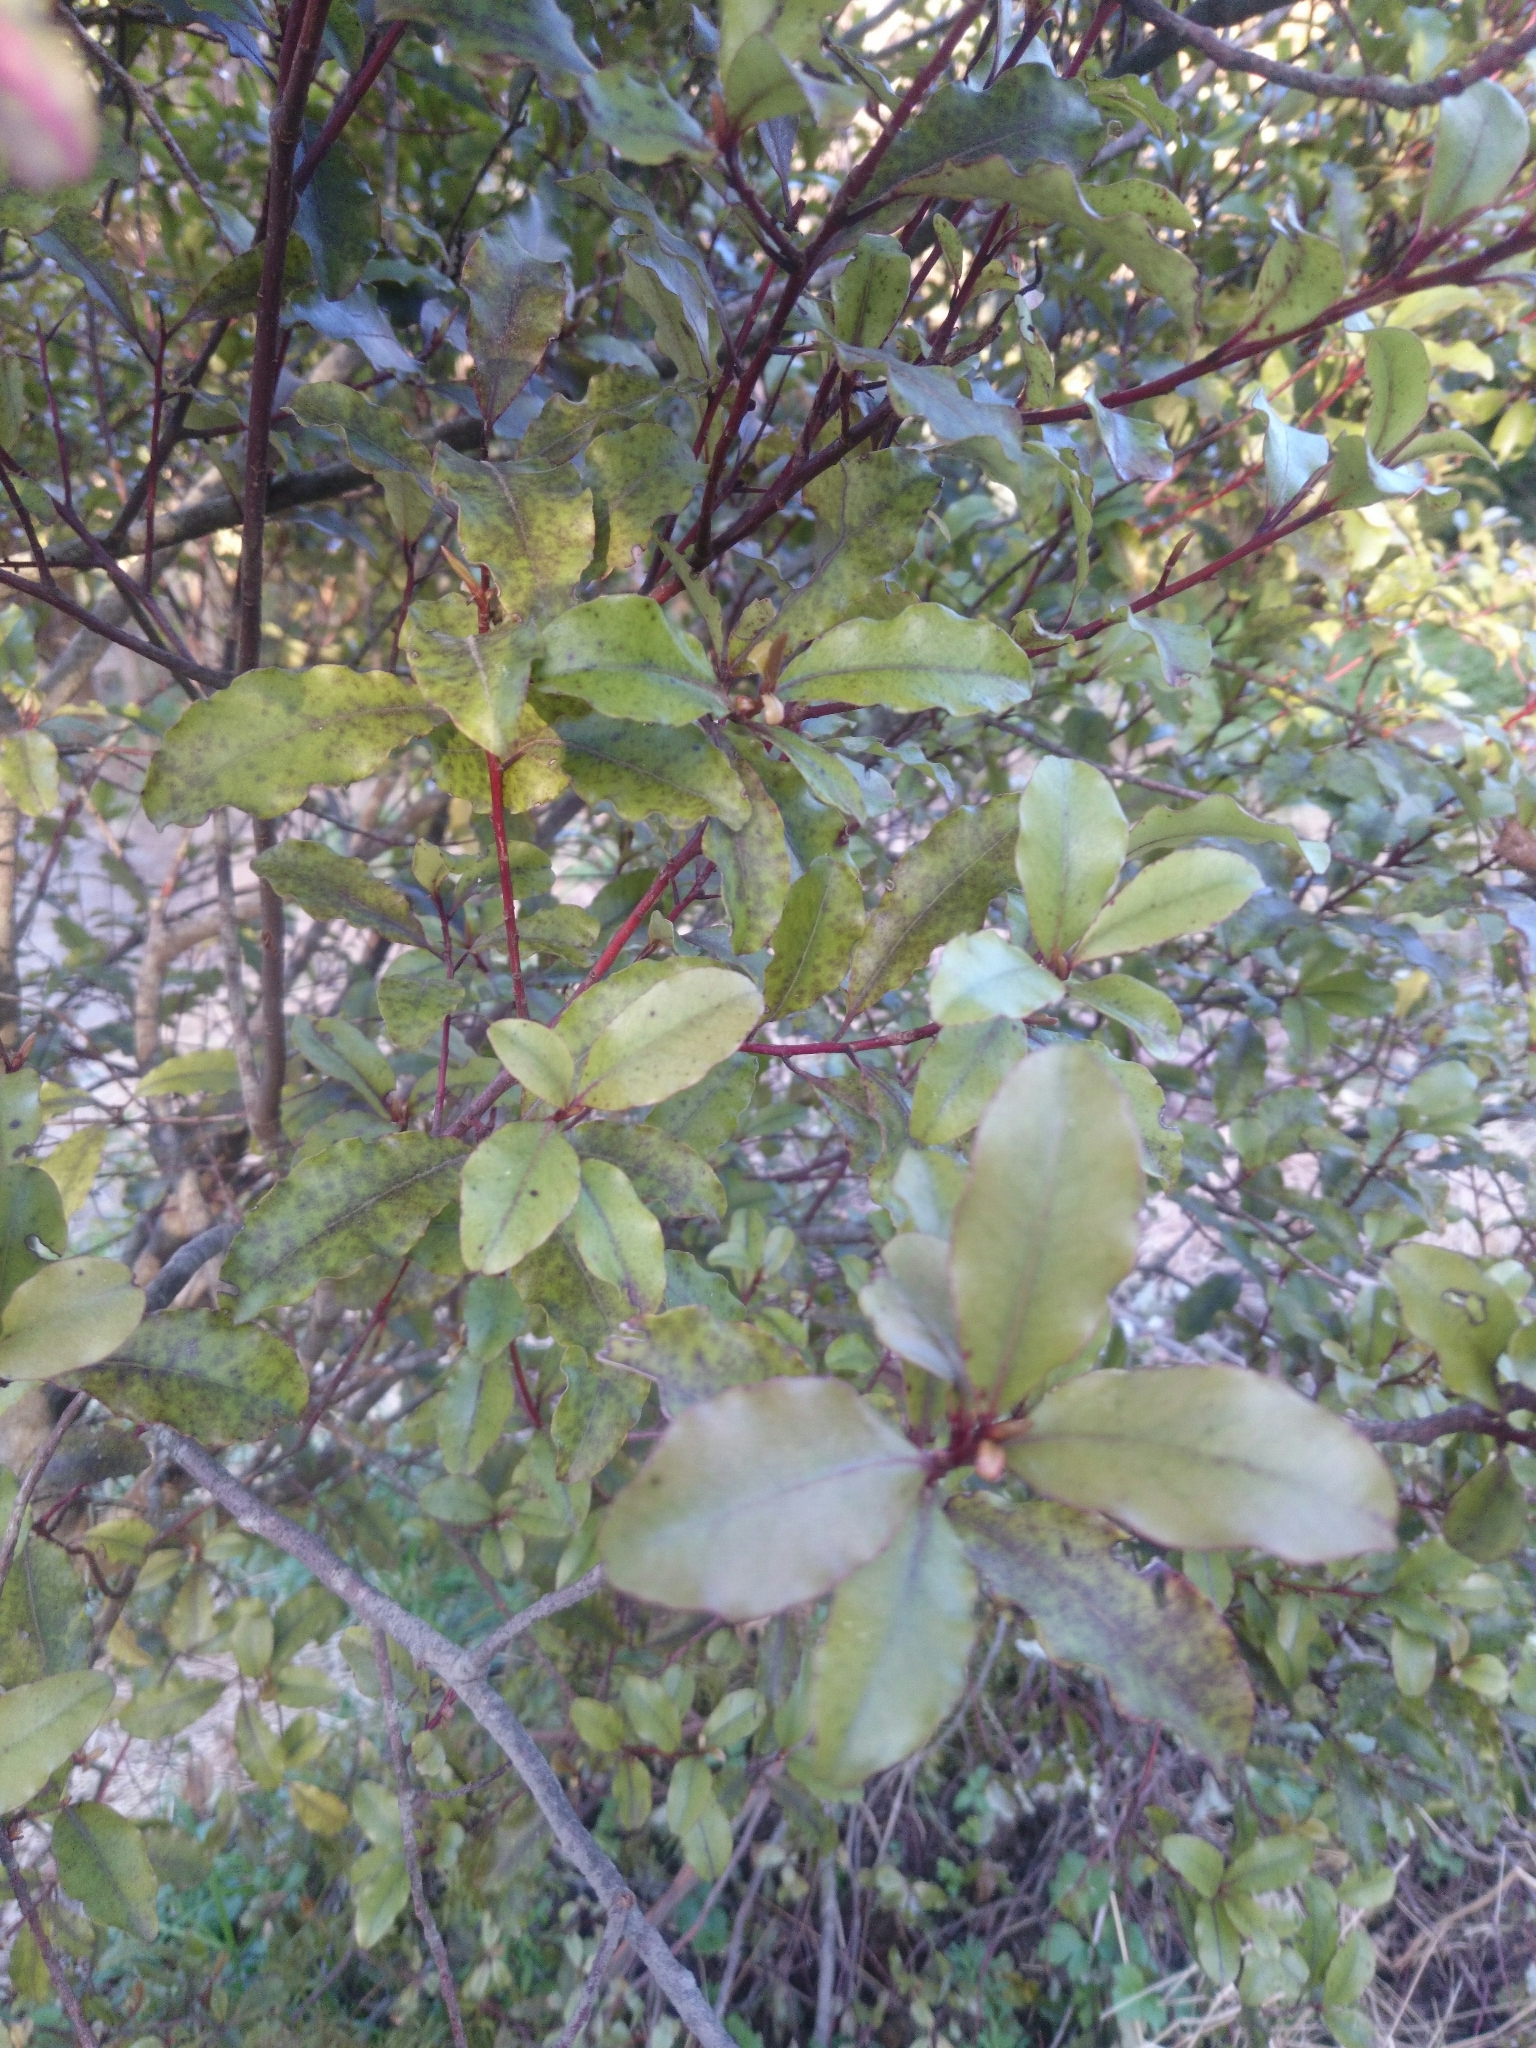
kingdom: Plantae
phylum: Tracheophyta
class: Magnoliopsida
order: Ericales
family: Primulaceae
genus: Myrsine
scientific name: Myrsine australis
